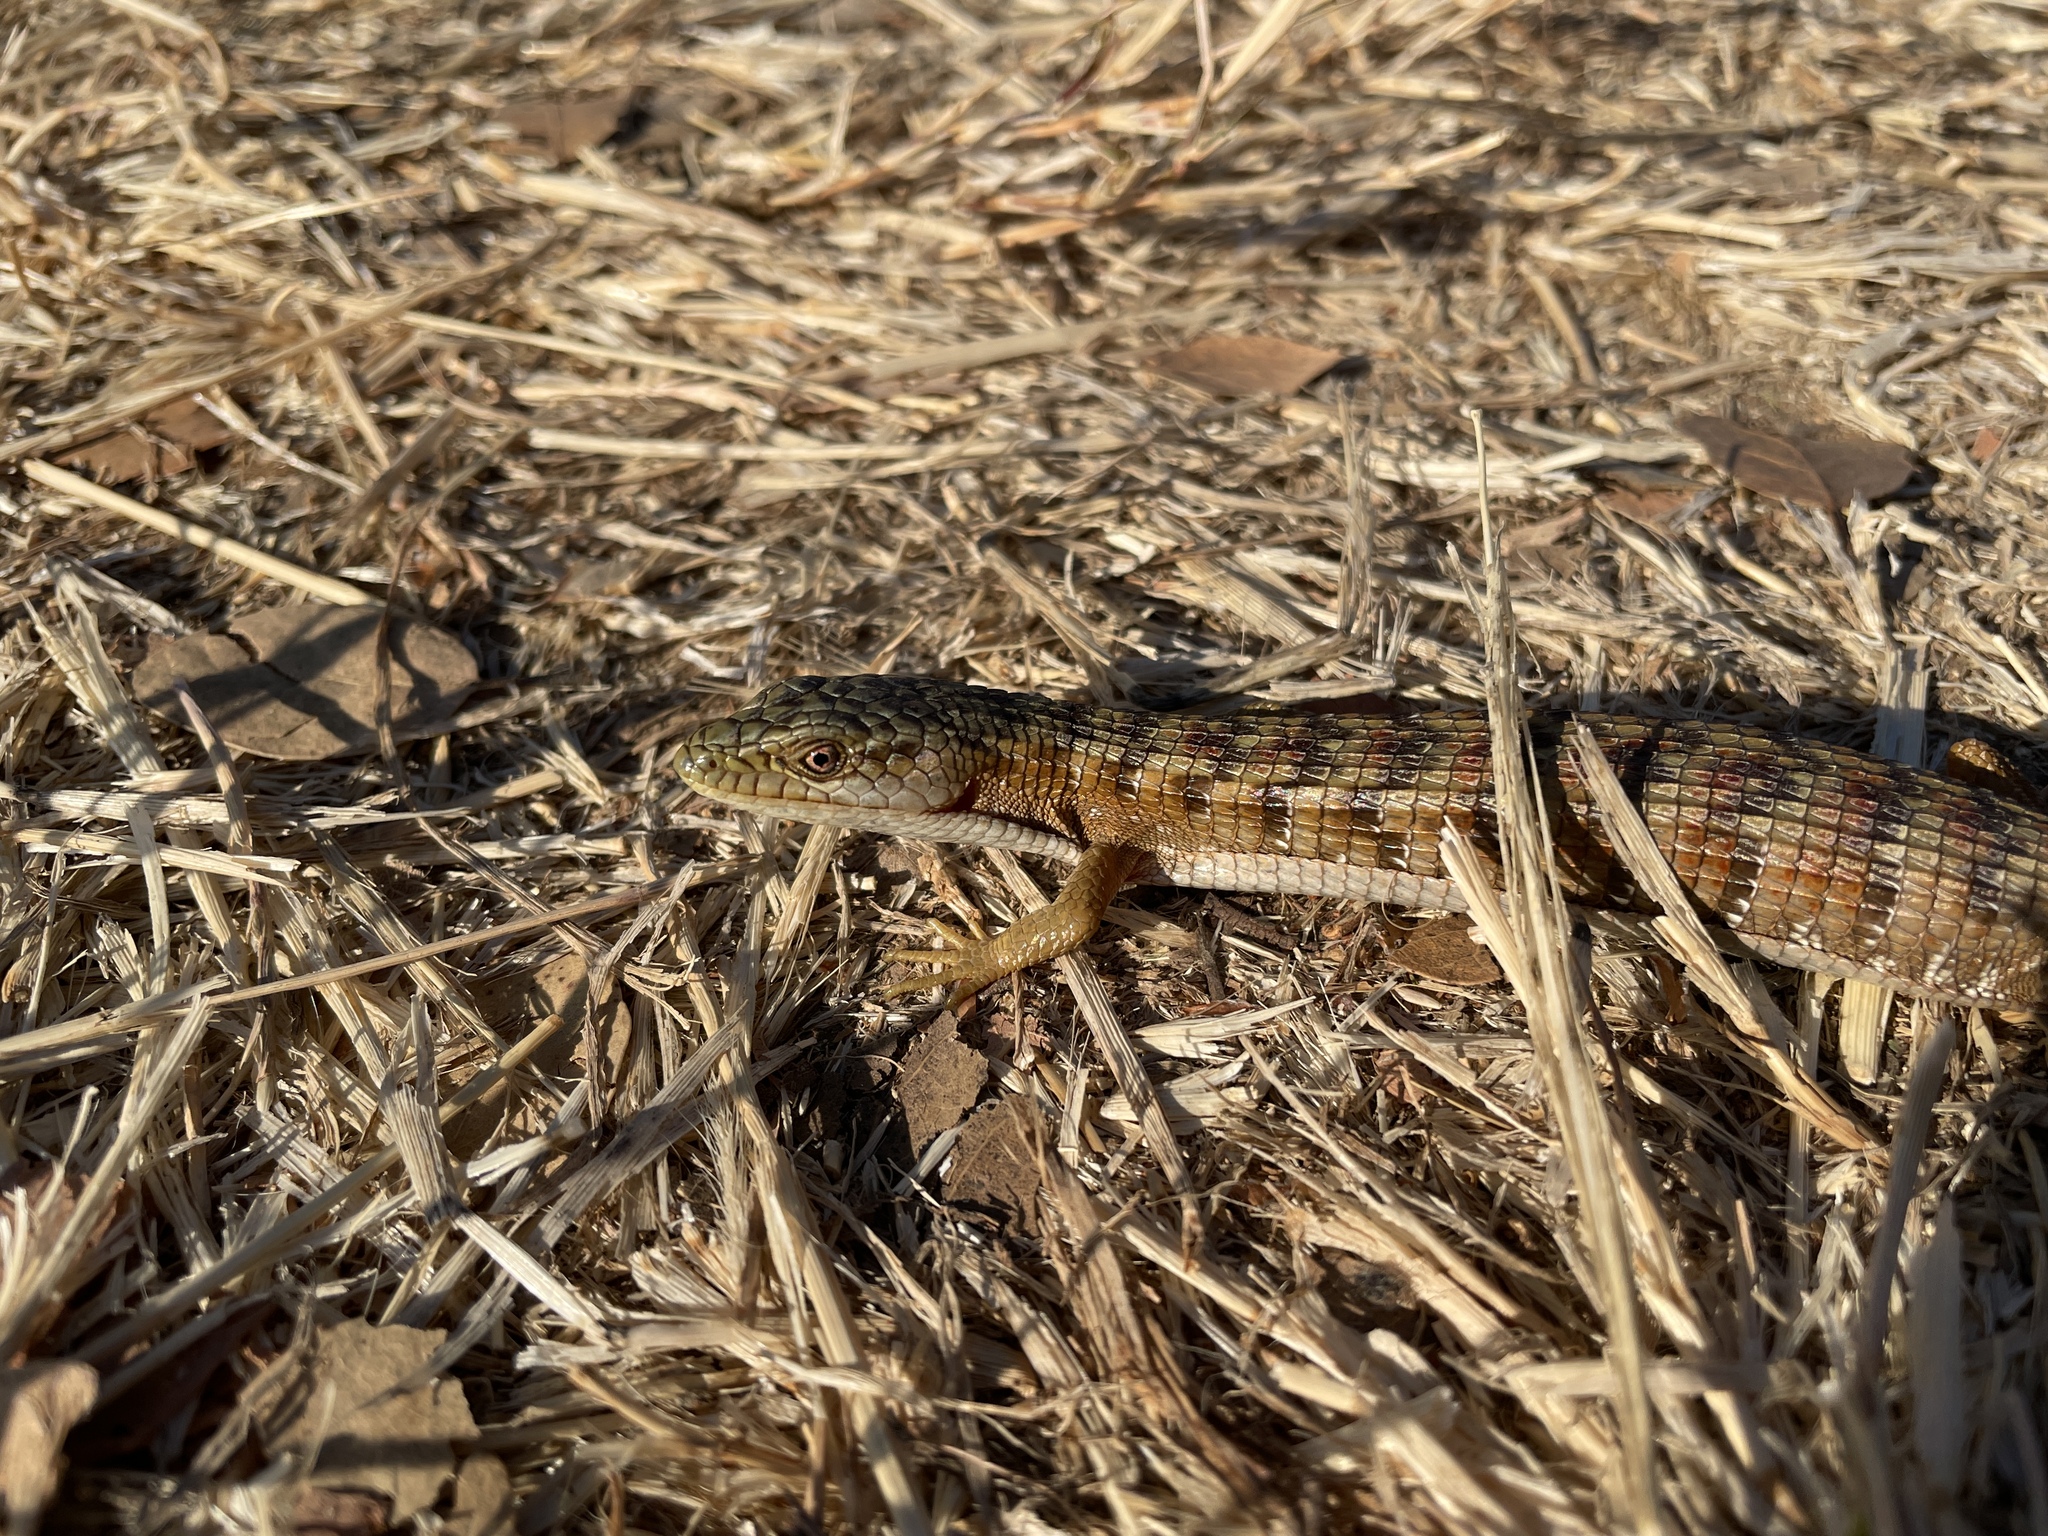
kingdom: Animalia
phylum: Chordata
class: Squamata
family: Anguidae
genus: Elgaria
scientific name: Elgaria multicarinata
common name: Southern alligator lizard
